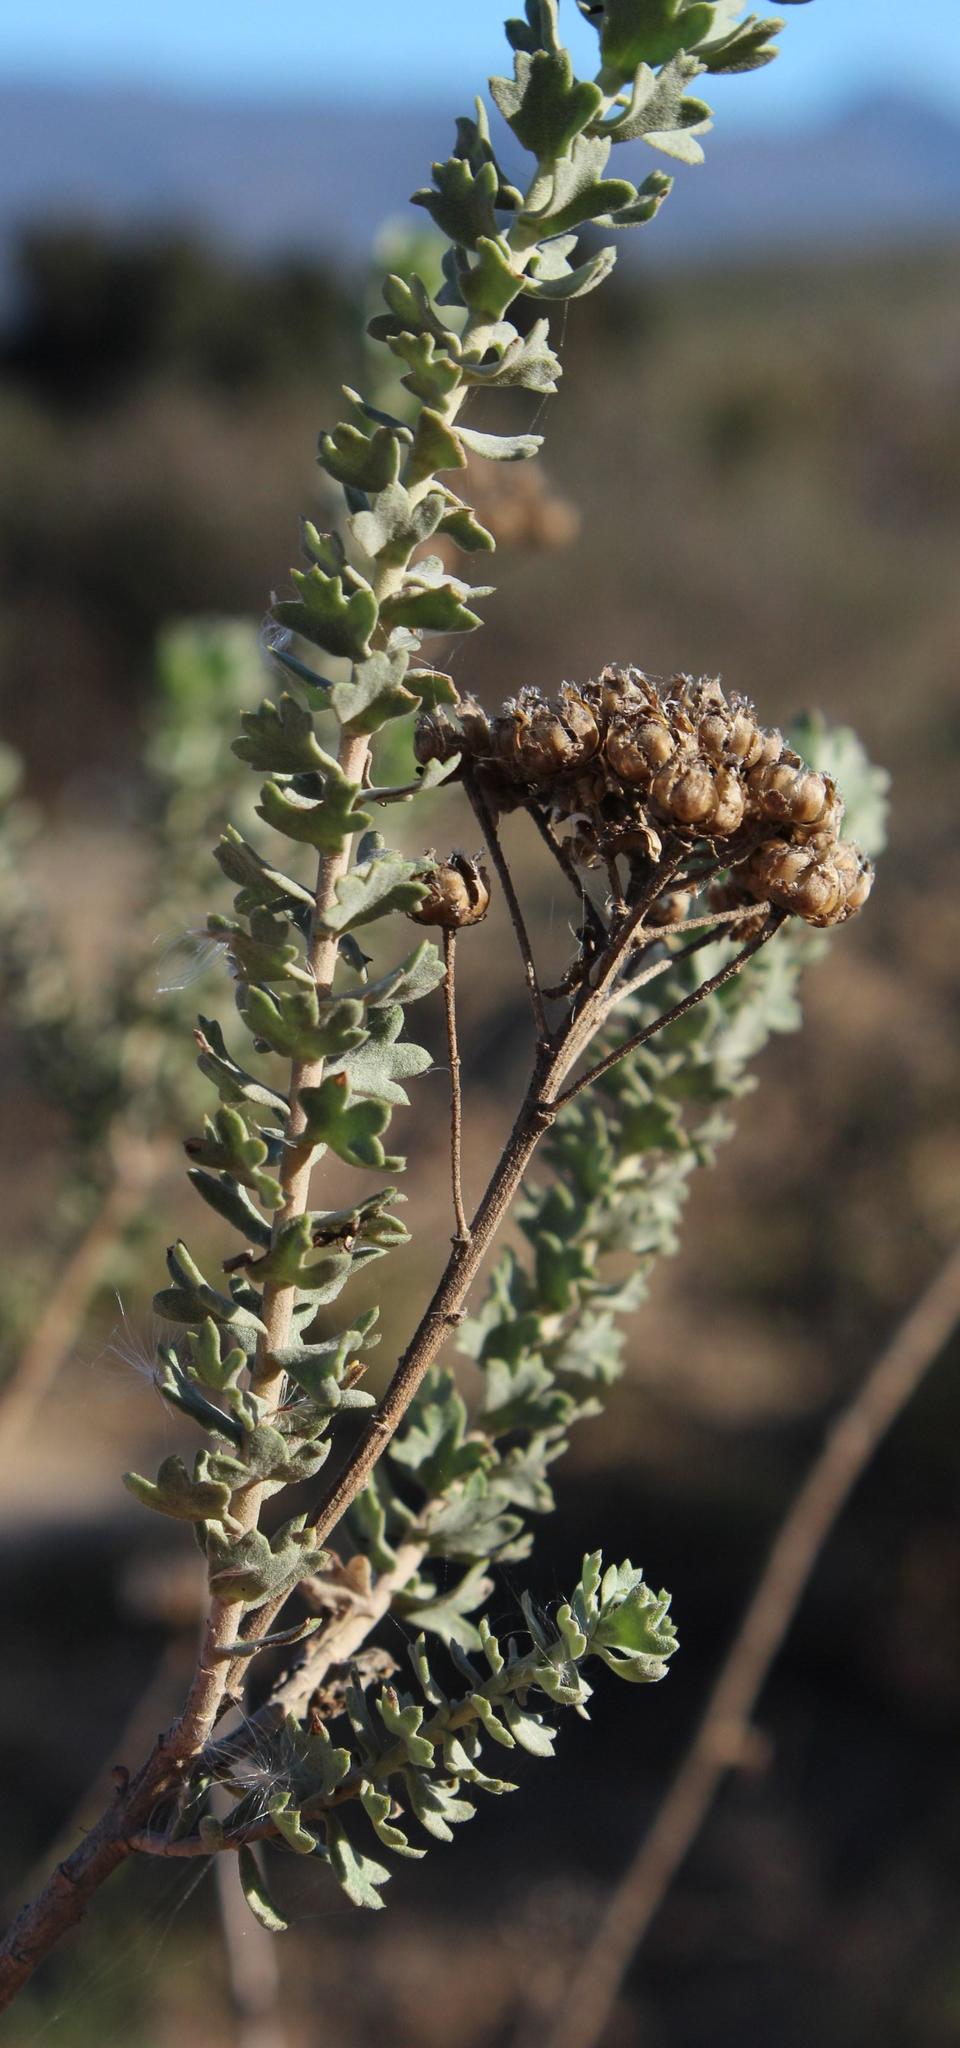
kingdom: Plantae
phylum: Tracheophyta
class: Magnoliopsida
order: Asterales
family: Asteraceae
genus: Athanasia
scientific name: Athanasia trifurcata
